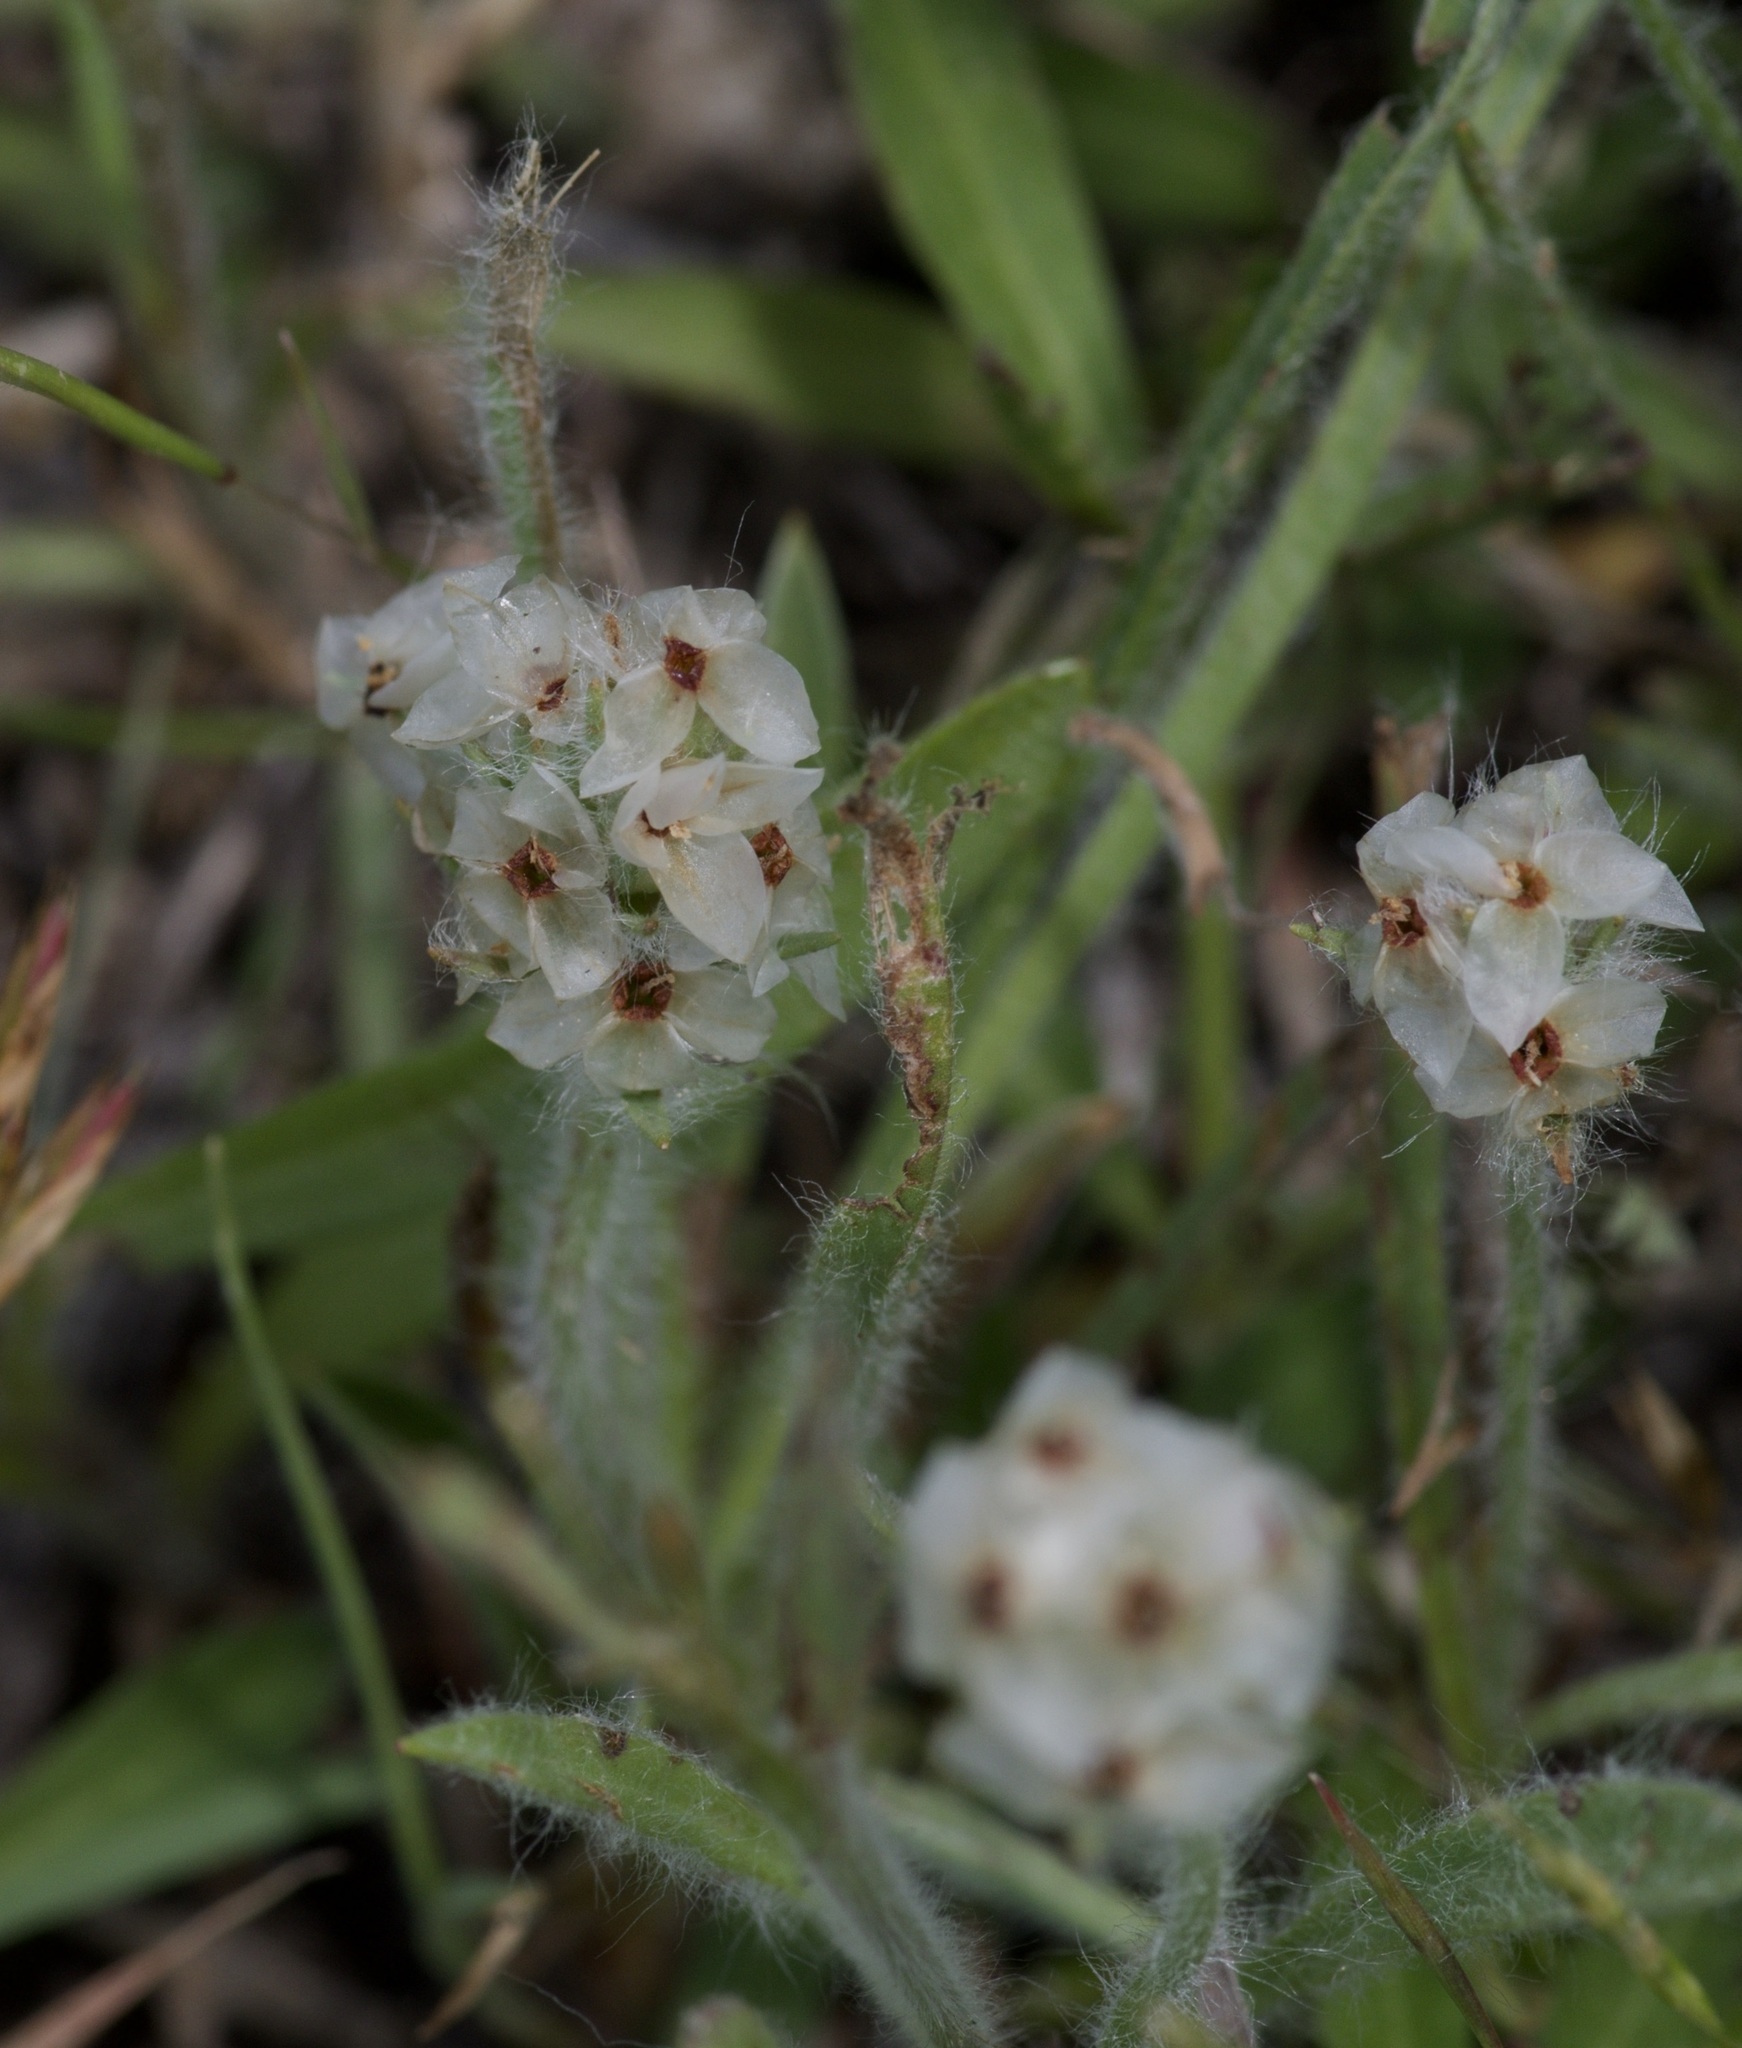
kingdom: Plantae
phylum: Tracheophyta
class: Magnoliopsida
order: Lamiales
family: Plantaginaceae
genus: Plantago
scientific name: Plantago helleri
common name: Heller's plantain
